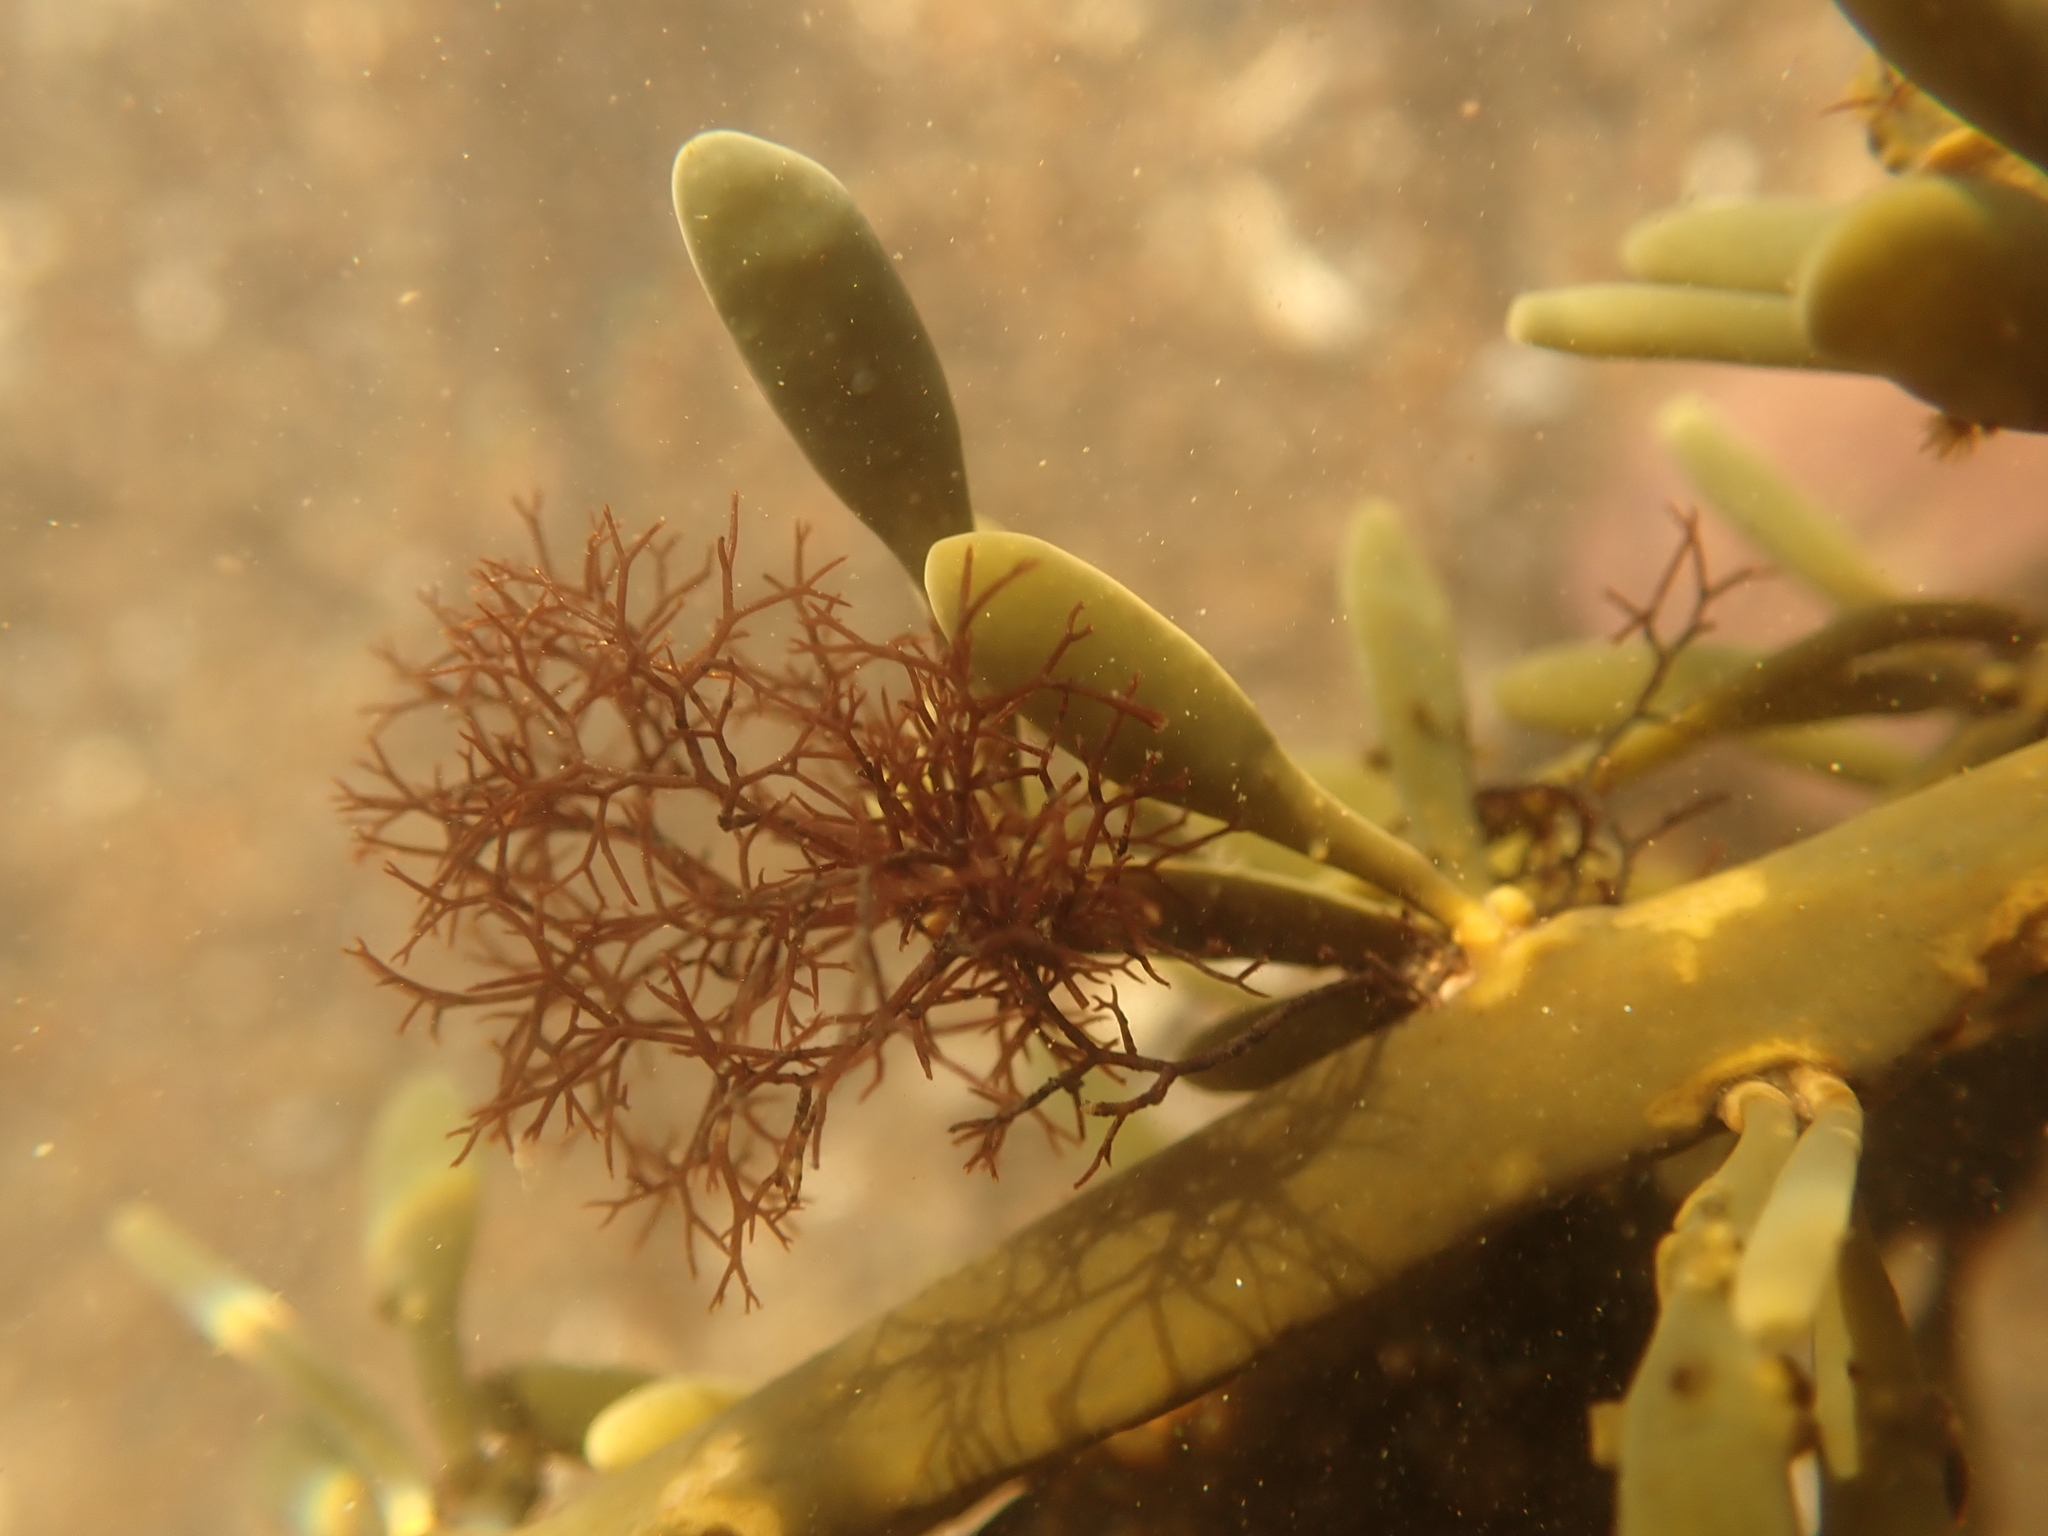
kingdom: Plantae
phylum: Rhodophyta
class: Florideophyceae
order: Ceramiales
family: Rhodomelaceae
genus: Vertebrata
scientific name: Vertebrata lanosa
